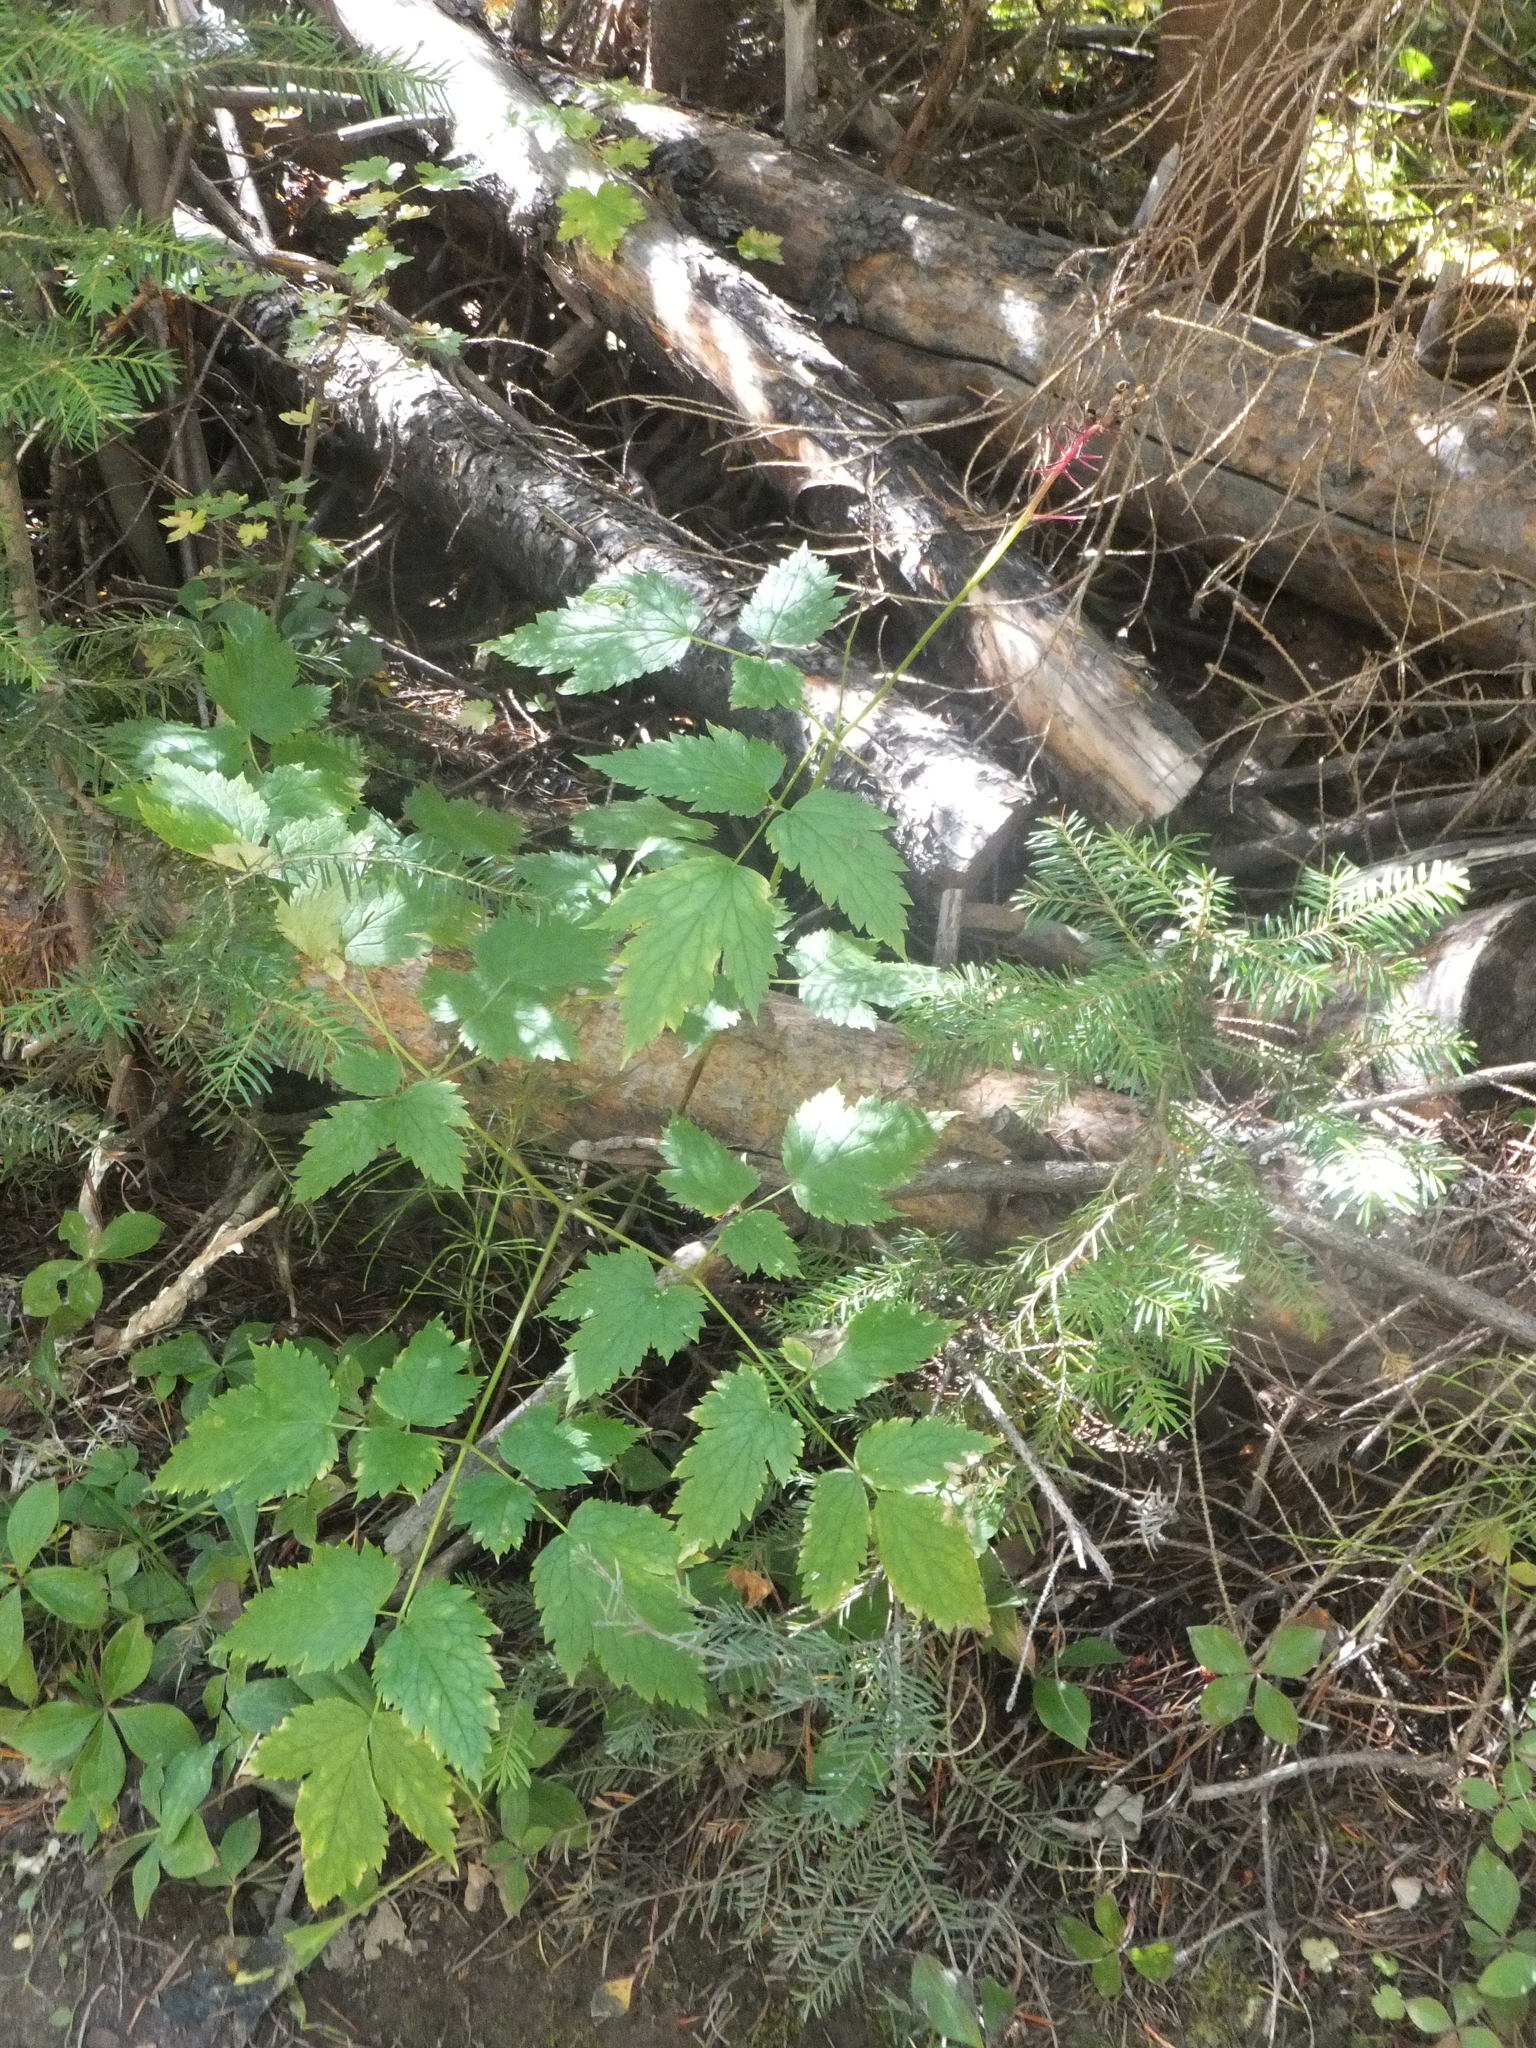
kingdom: Plantae
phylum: Tracheophyta
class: Magnoliopsida
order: Ranunculales
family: Ranunculaceae
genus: Actaea
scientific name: Actaea rubra
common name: Red baneberry
